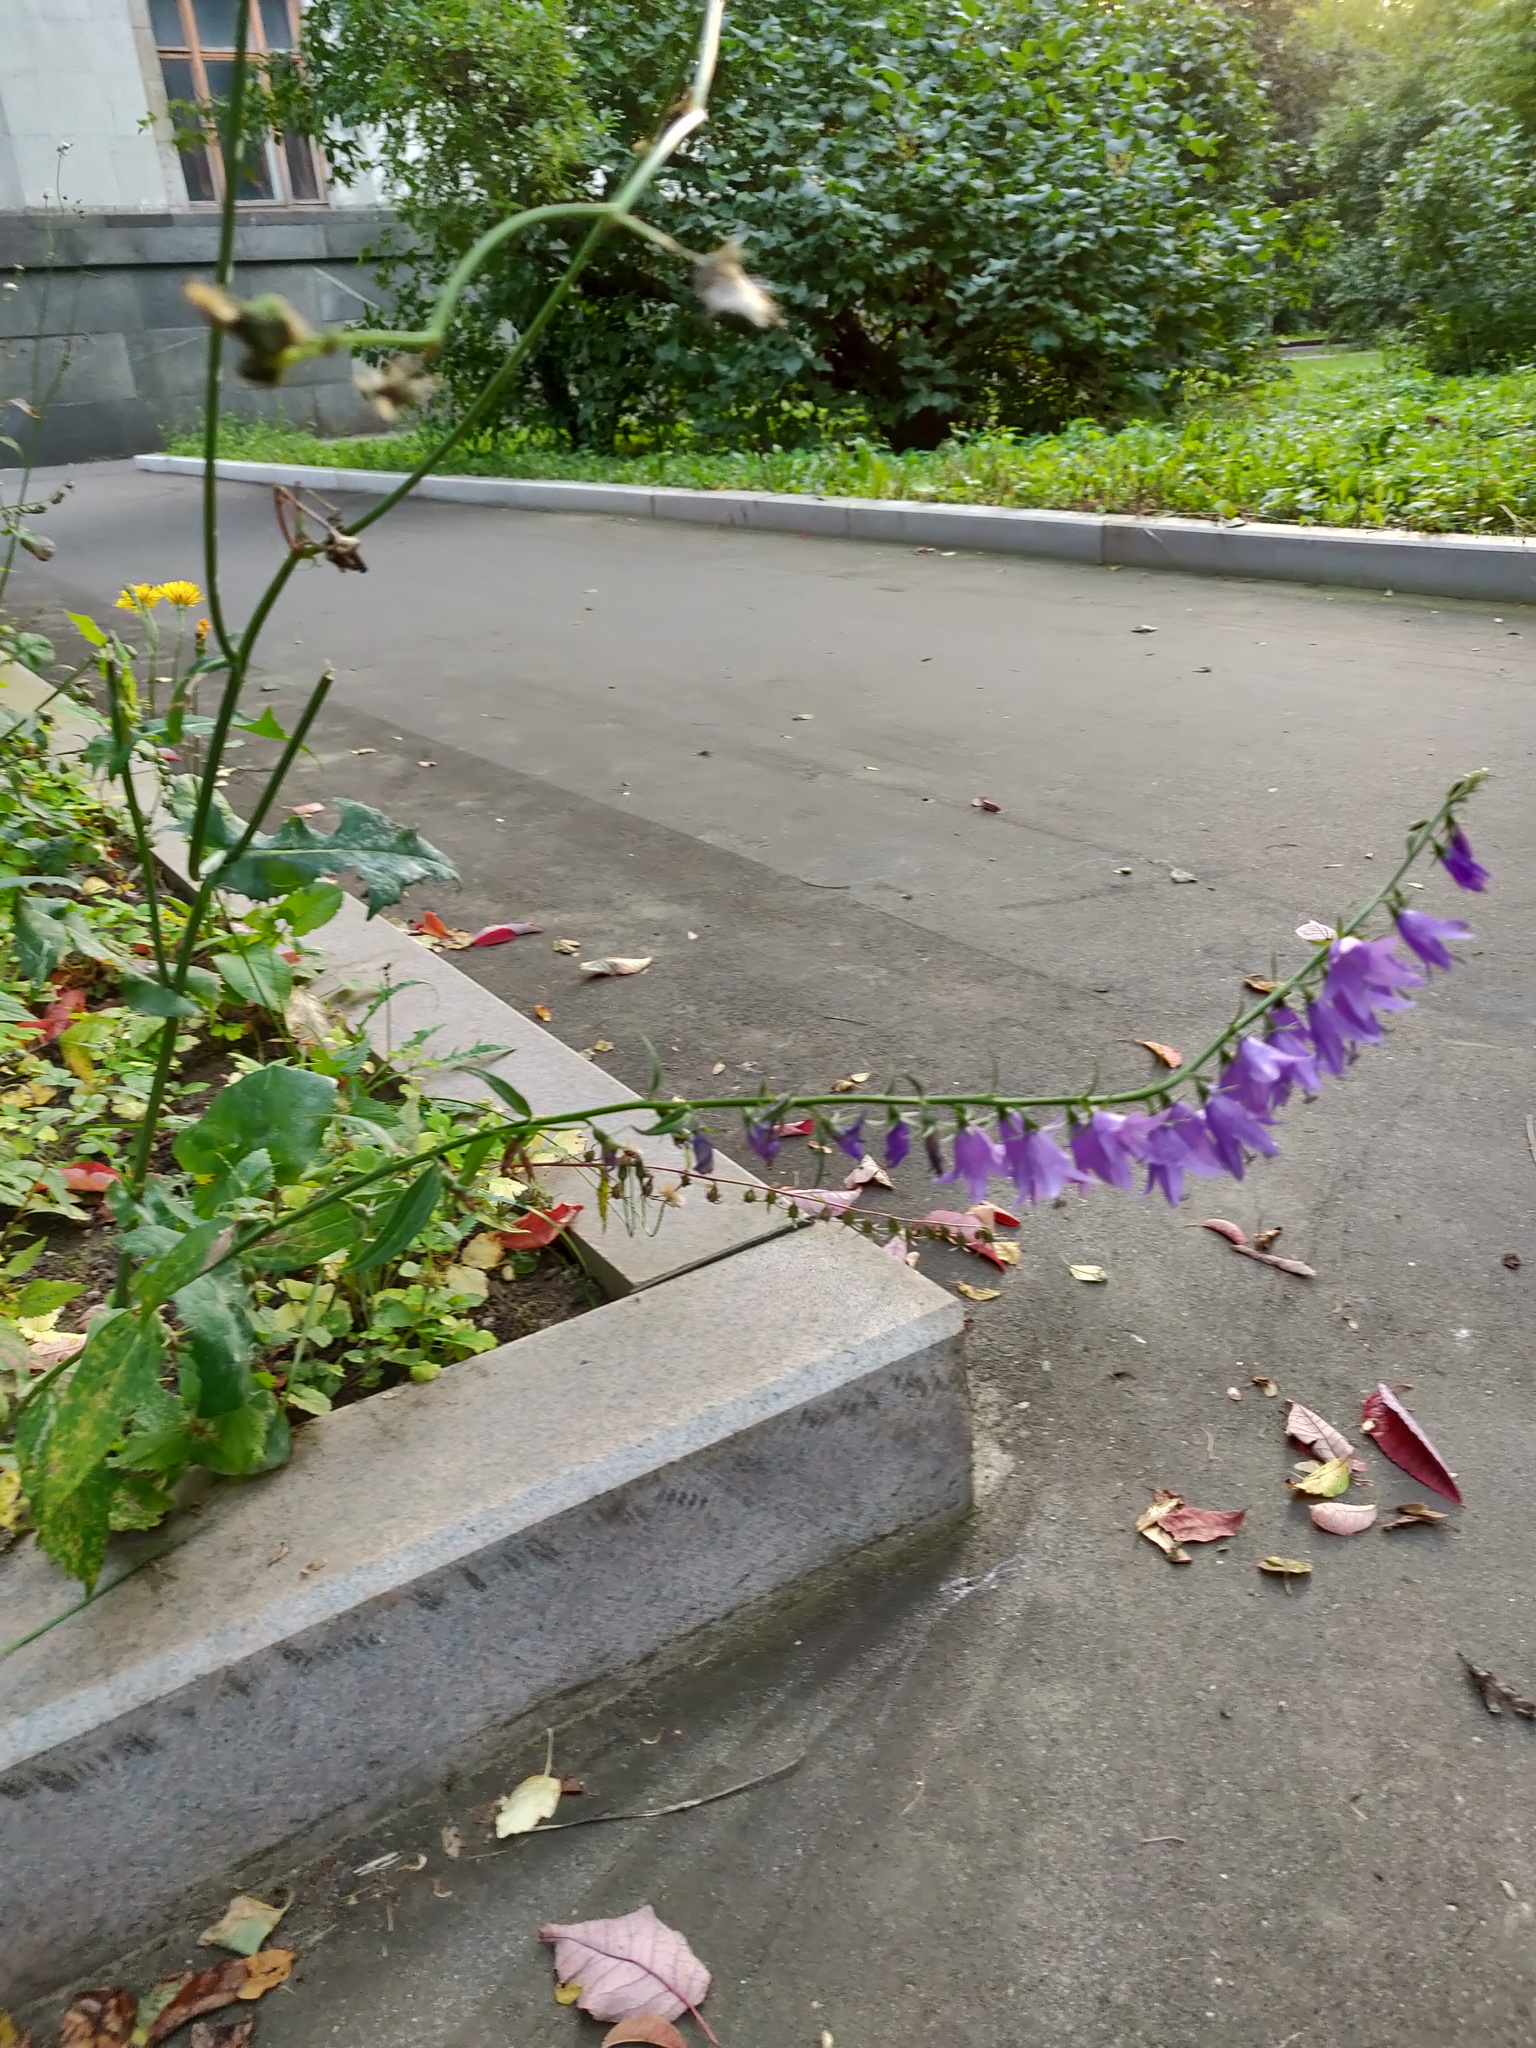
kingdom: Plantae
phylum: Tracheophyta
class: Magnoliopsida
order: Asterales
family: Campanulaceae
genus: Campanula
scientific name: Campanula rapunculoides
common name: Creeping bellflower
